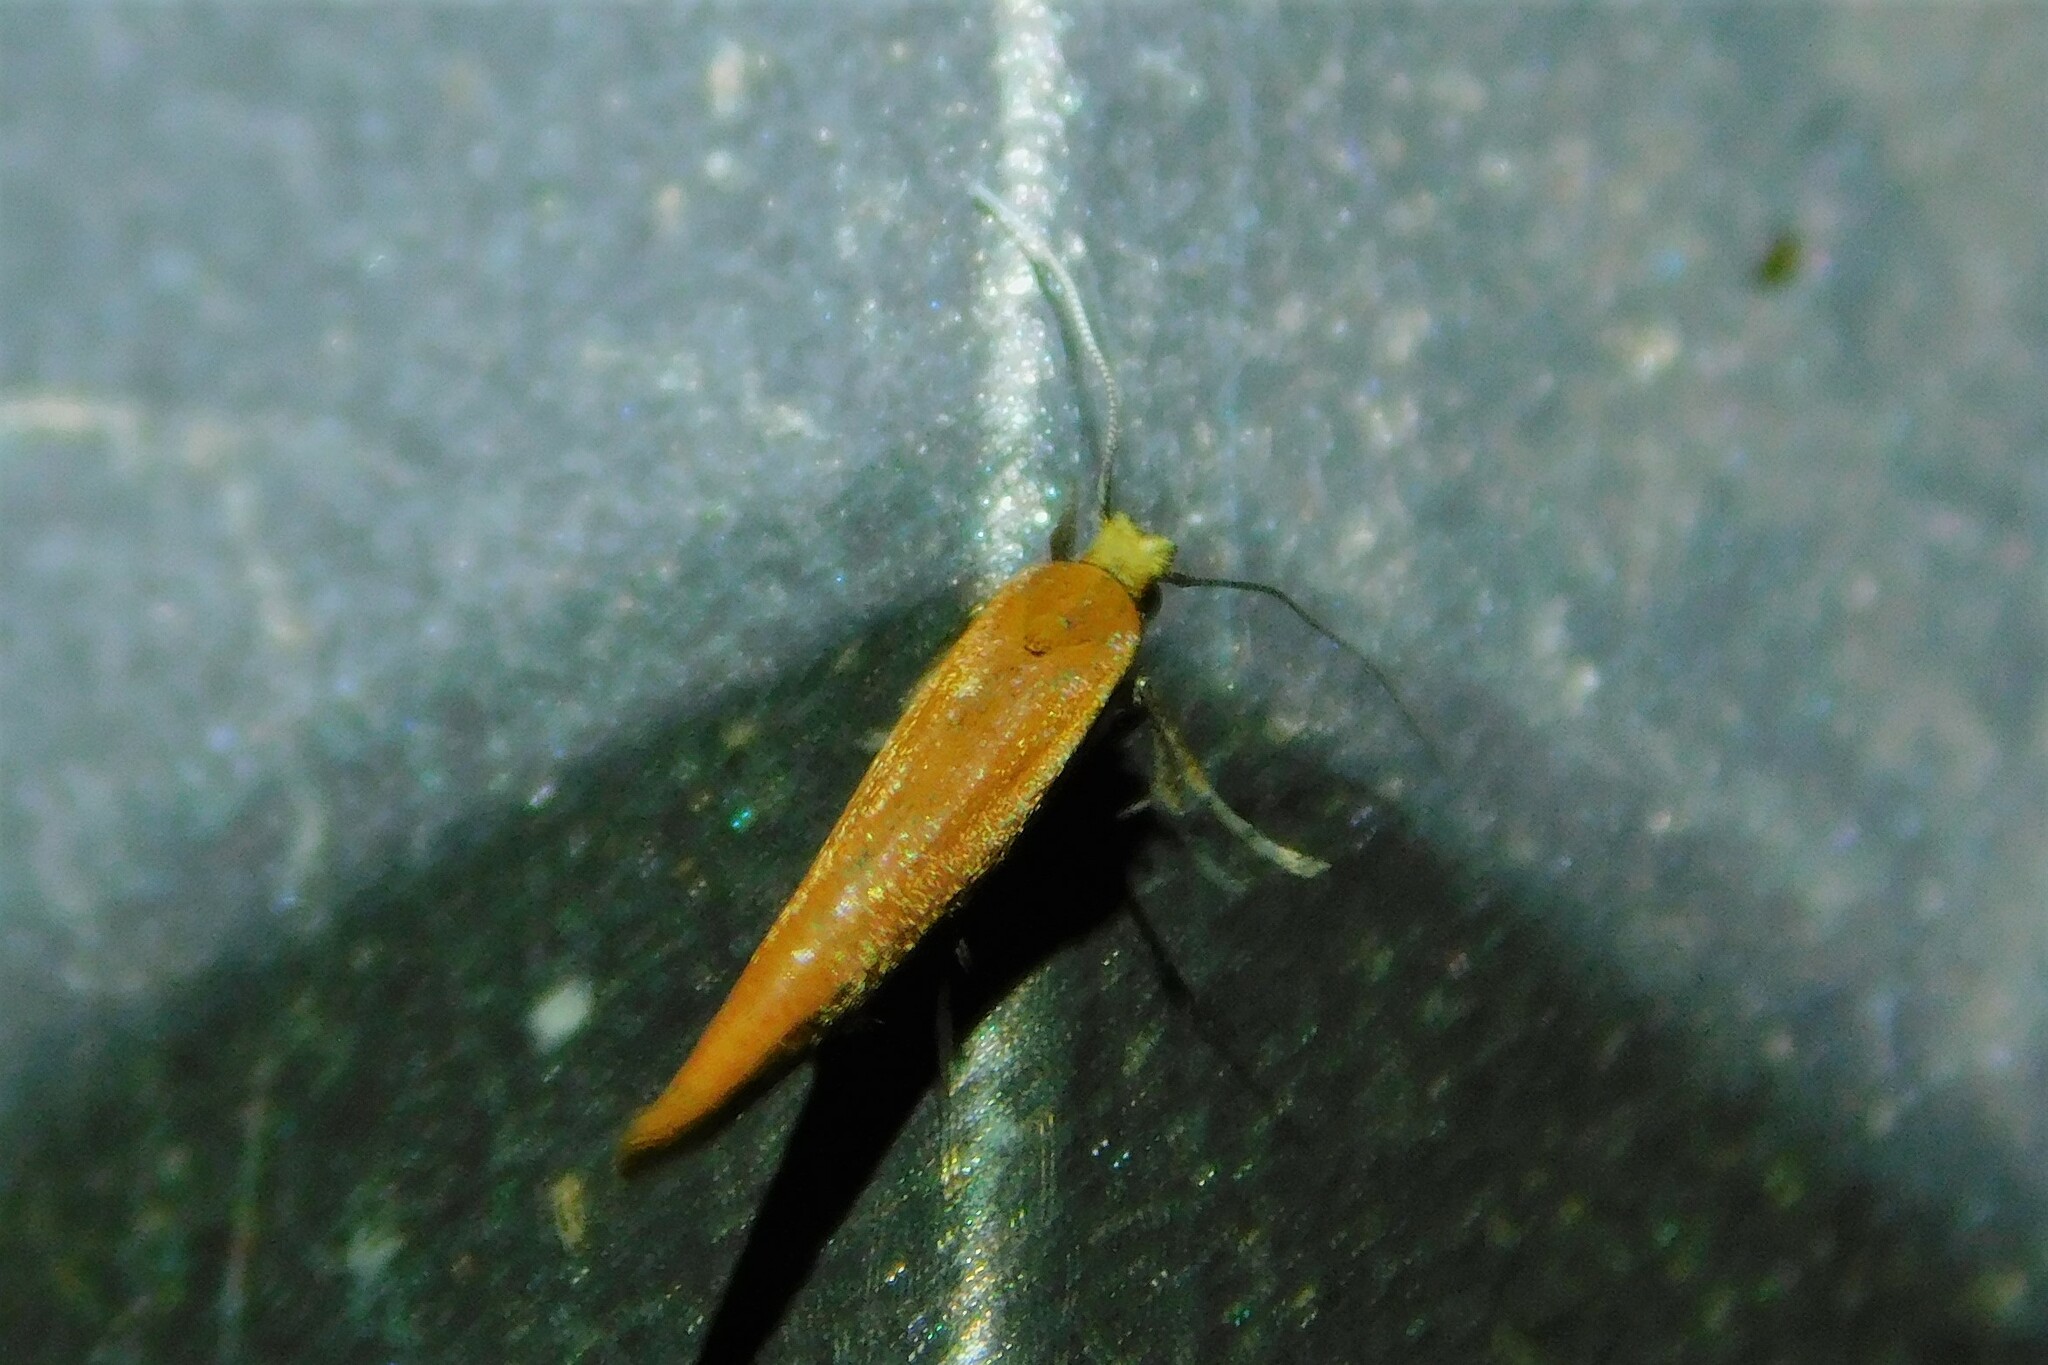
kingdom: Animalia
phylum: Arthropoda
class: Insecta
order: Lepidoptera
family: Yponomeutidae
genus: Zelleria
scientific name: Zelleria hepariella
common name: Brown ash ermine
